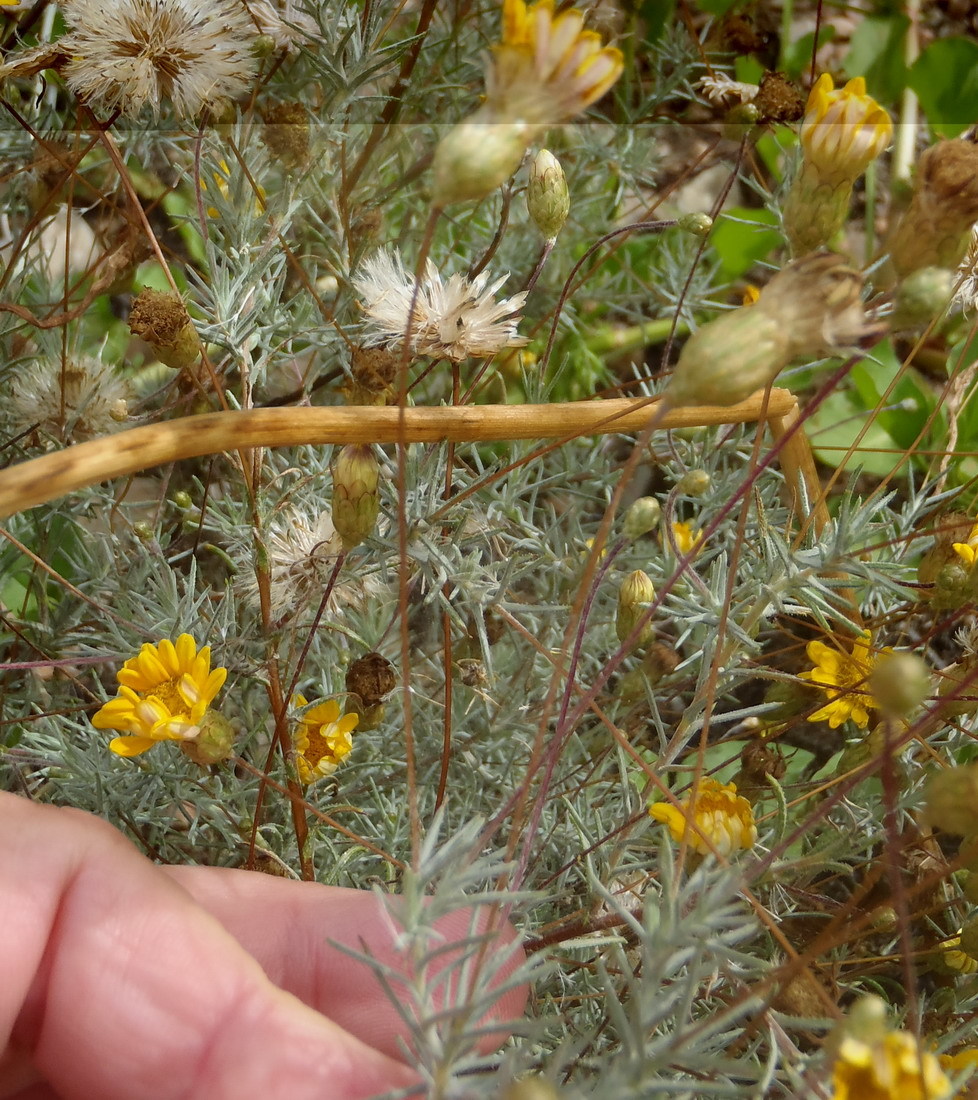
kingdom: Plantae
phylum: Tracheophyta
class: Magnoliopsida
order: Asterales
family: Asteraceae
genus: Leysera
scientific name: Leysera gnaphalodes
